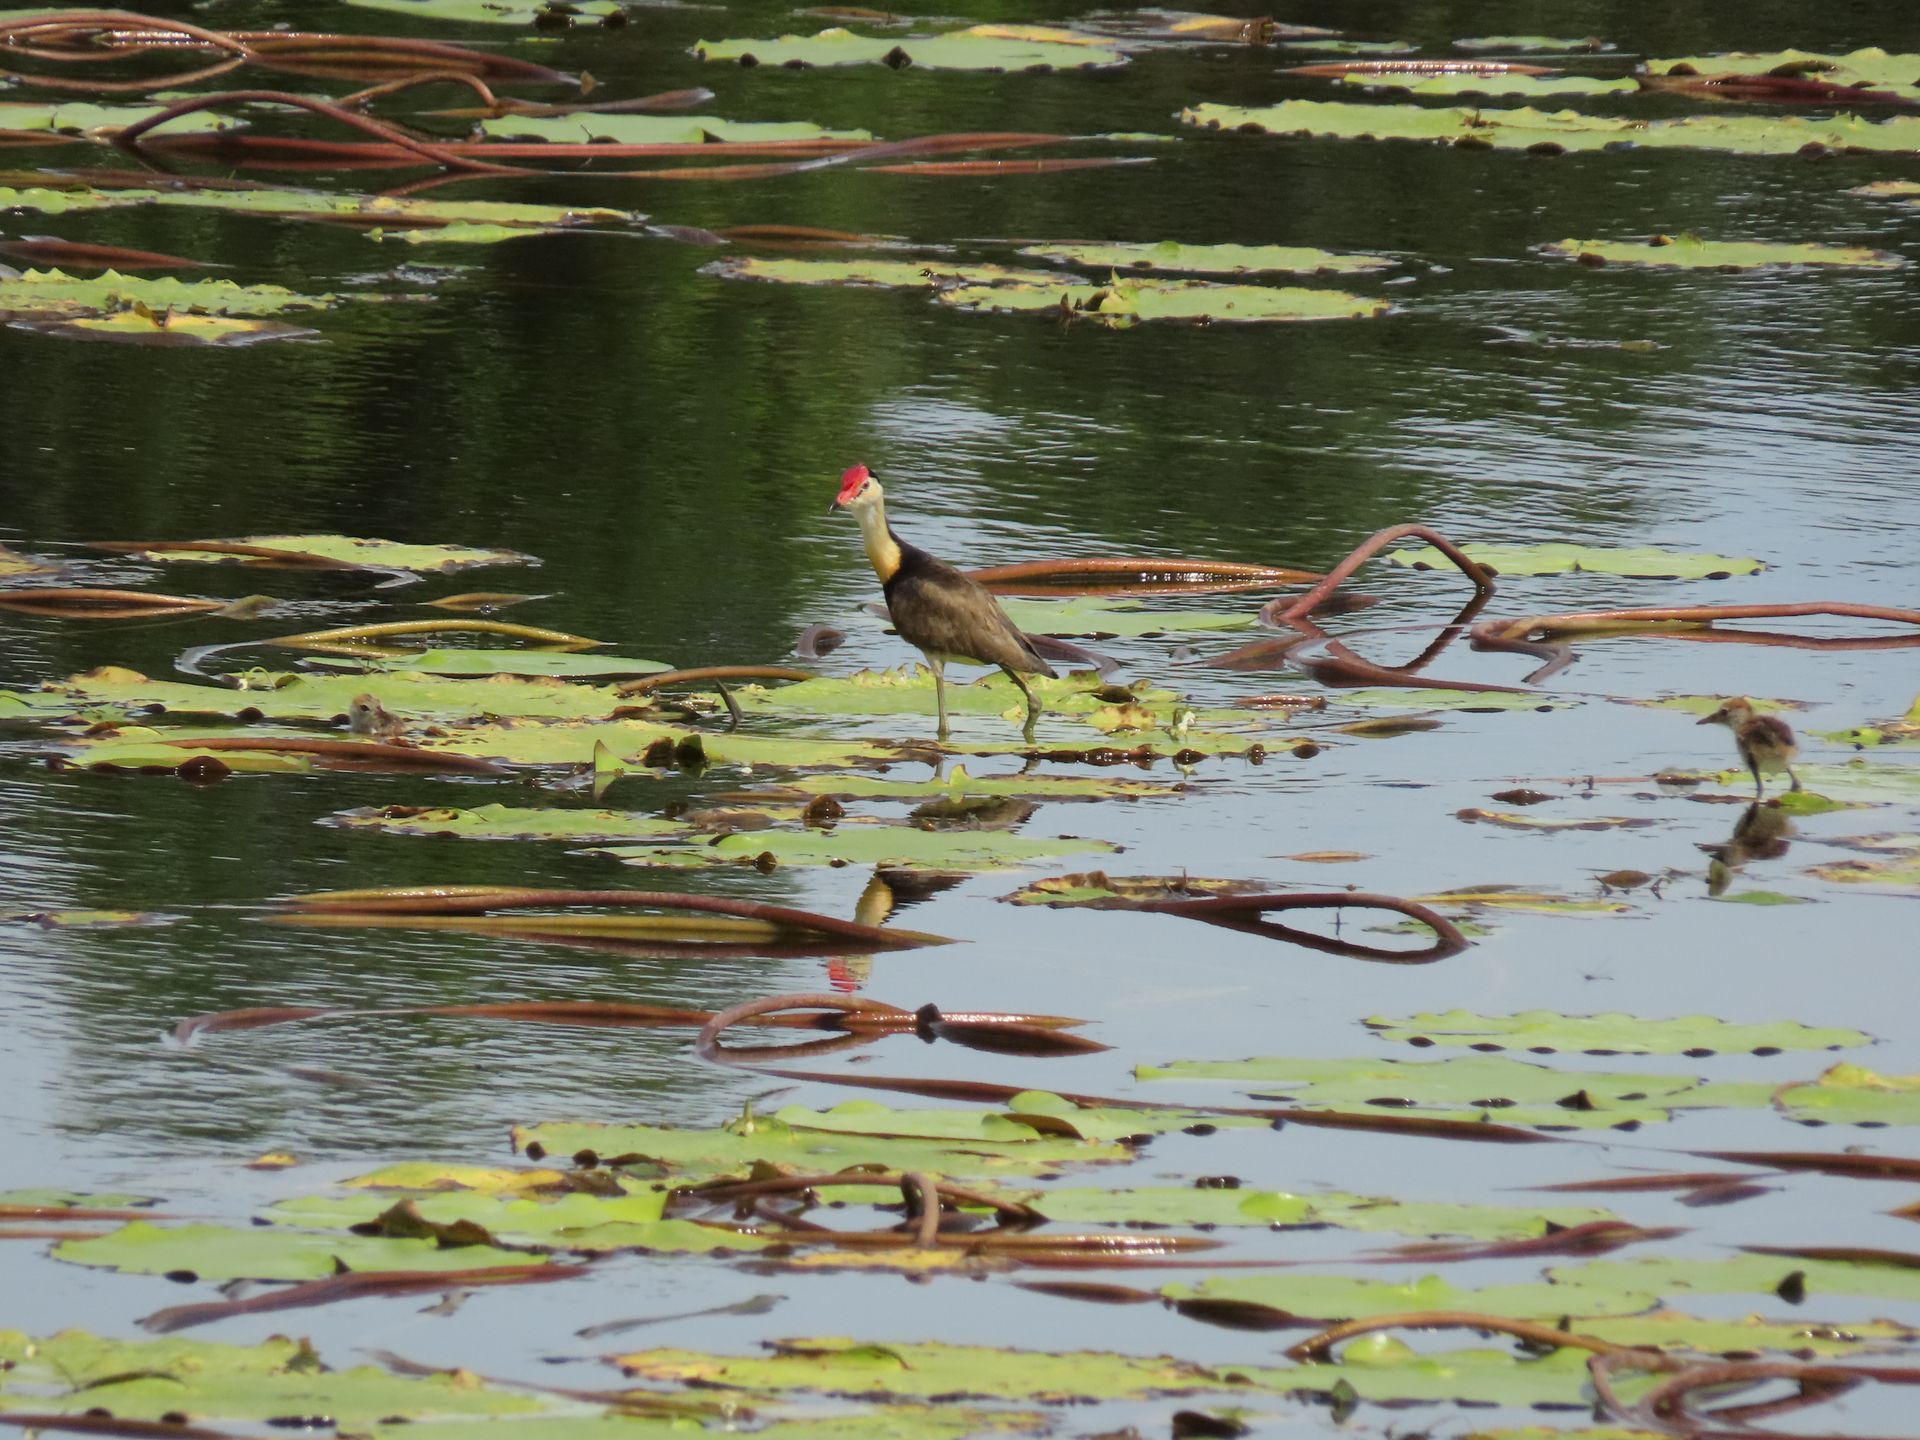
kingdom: Animalia
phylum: Chordata
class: Aves
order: Charadriiformes
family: Jacanidae
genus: Irediparra
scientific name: Irediparra gallinacea
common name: Comb-crested jacana
